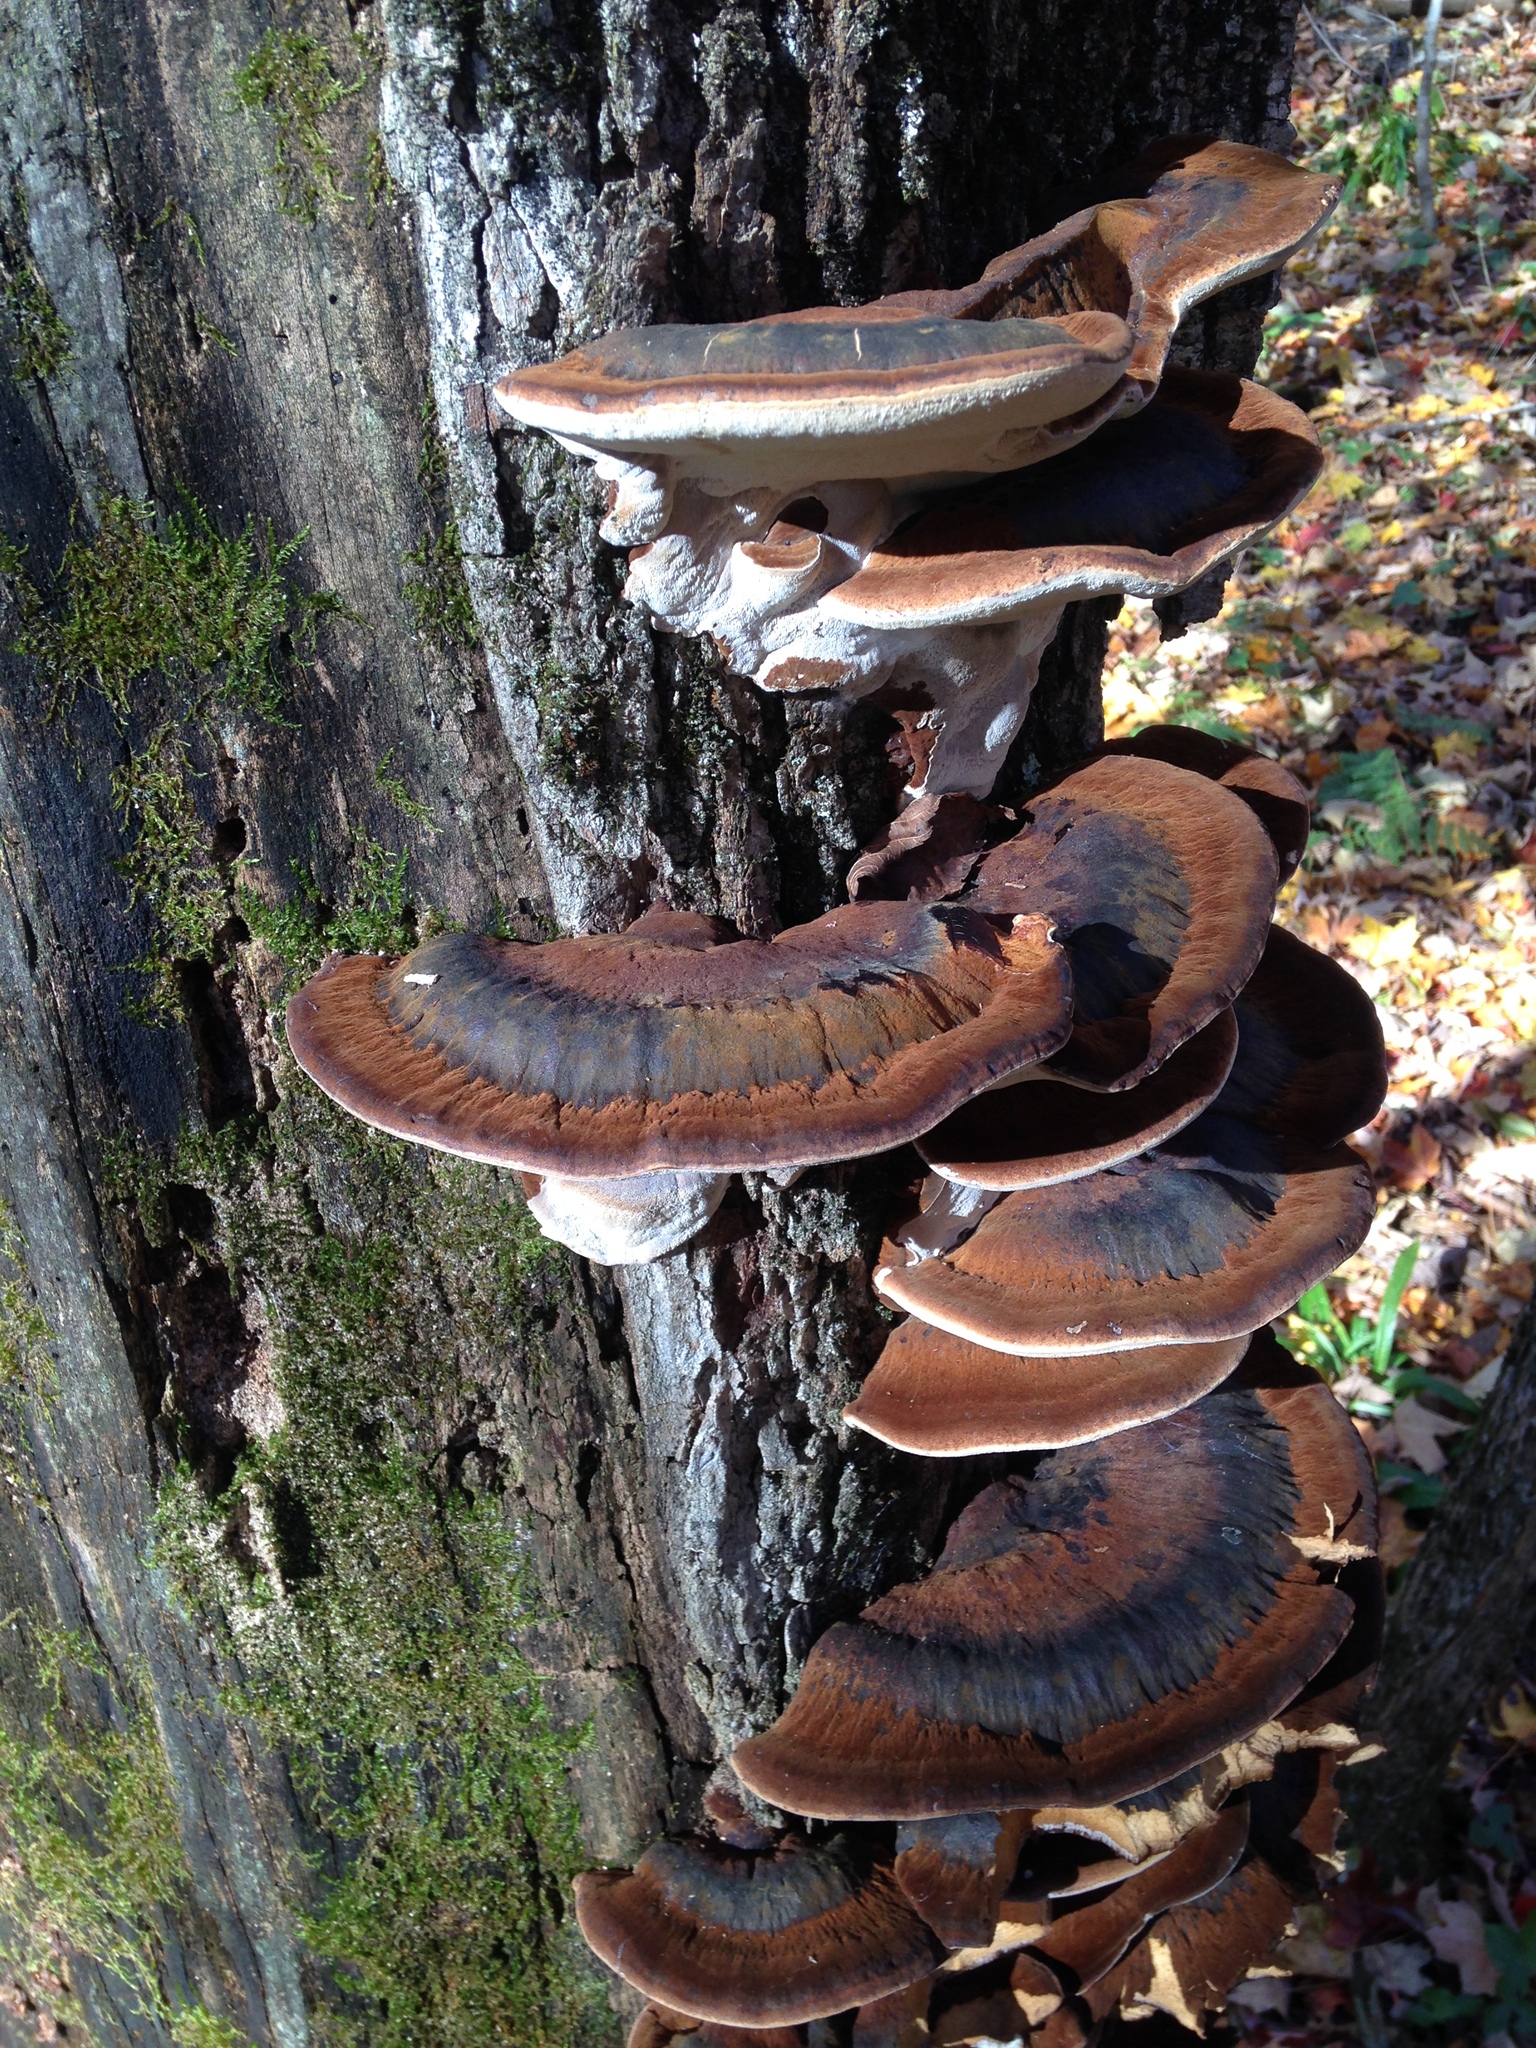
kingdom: Fungi
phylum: Basidiomycota
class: Agaricomycetes
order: Polyporales
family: Ischnodermataceae
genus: Ischnoderma
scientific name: Ischnoderma resinosum
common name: Resinous polypore
